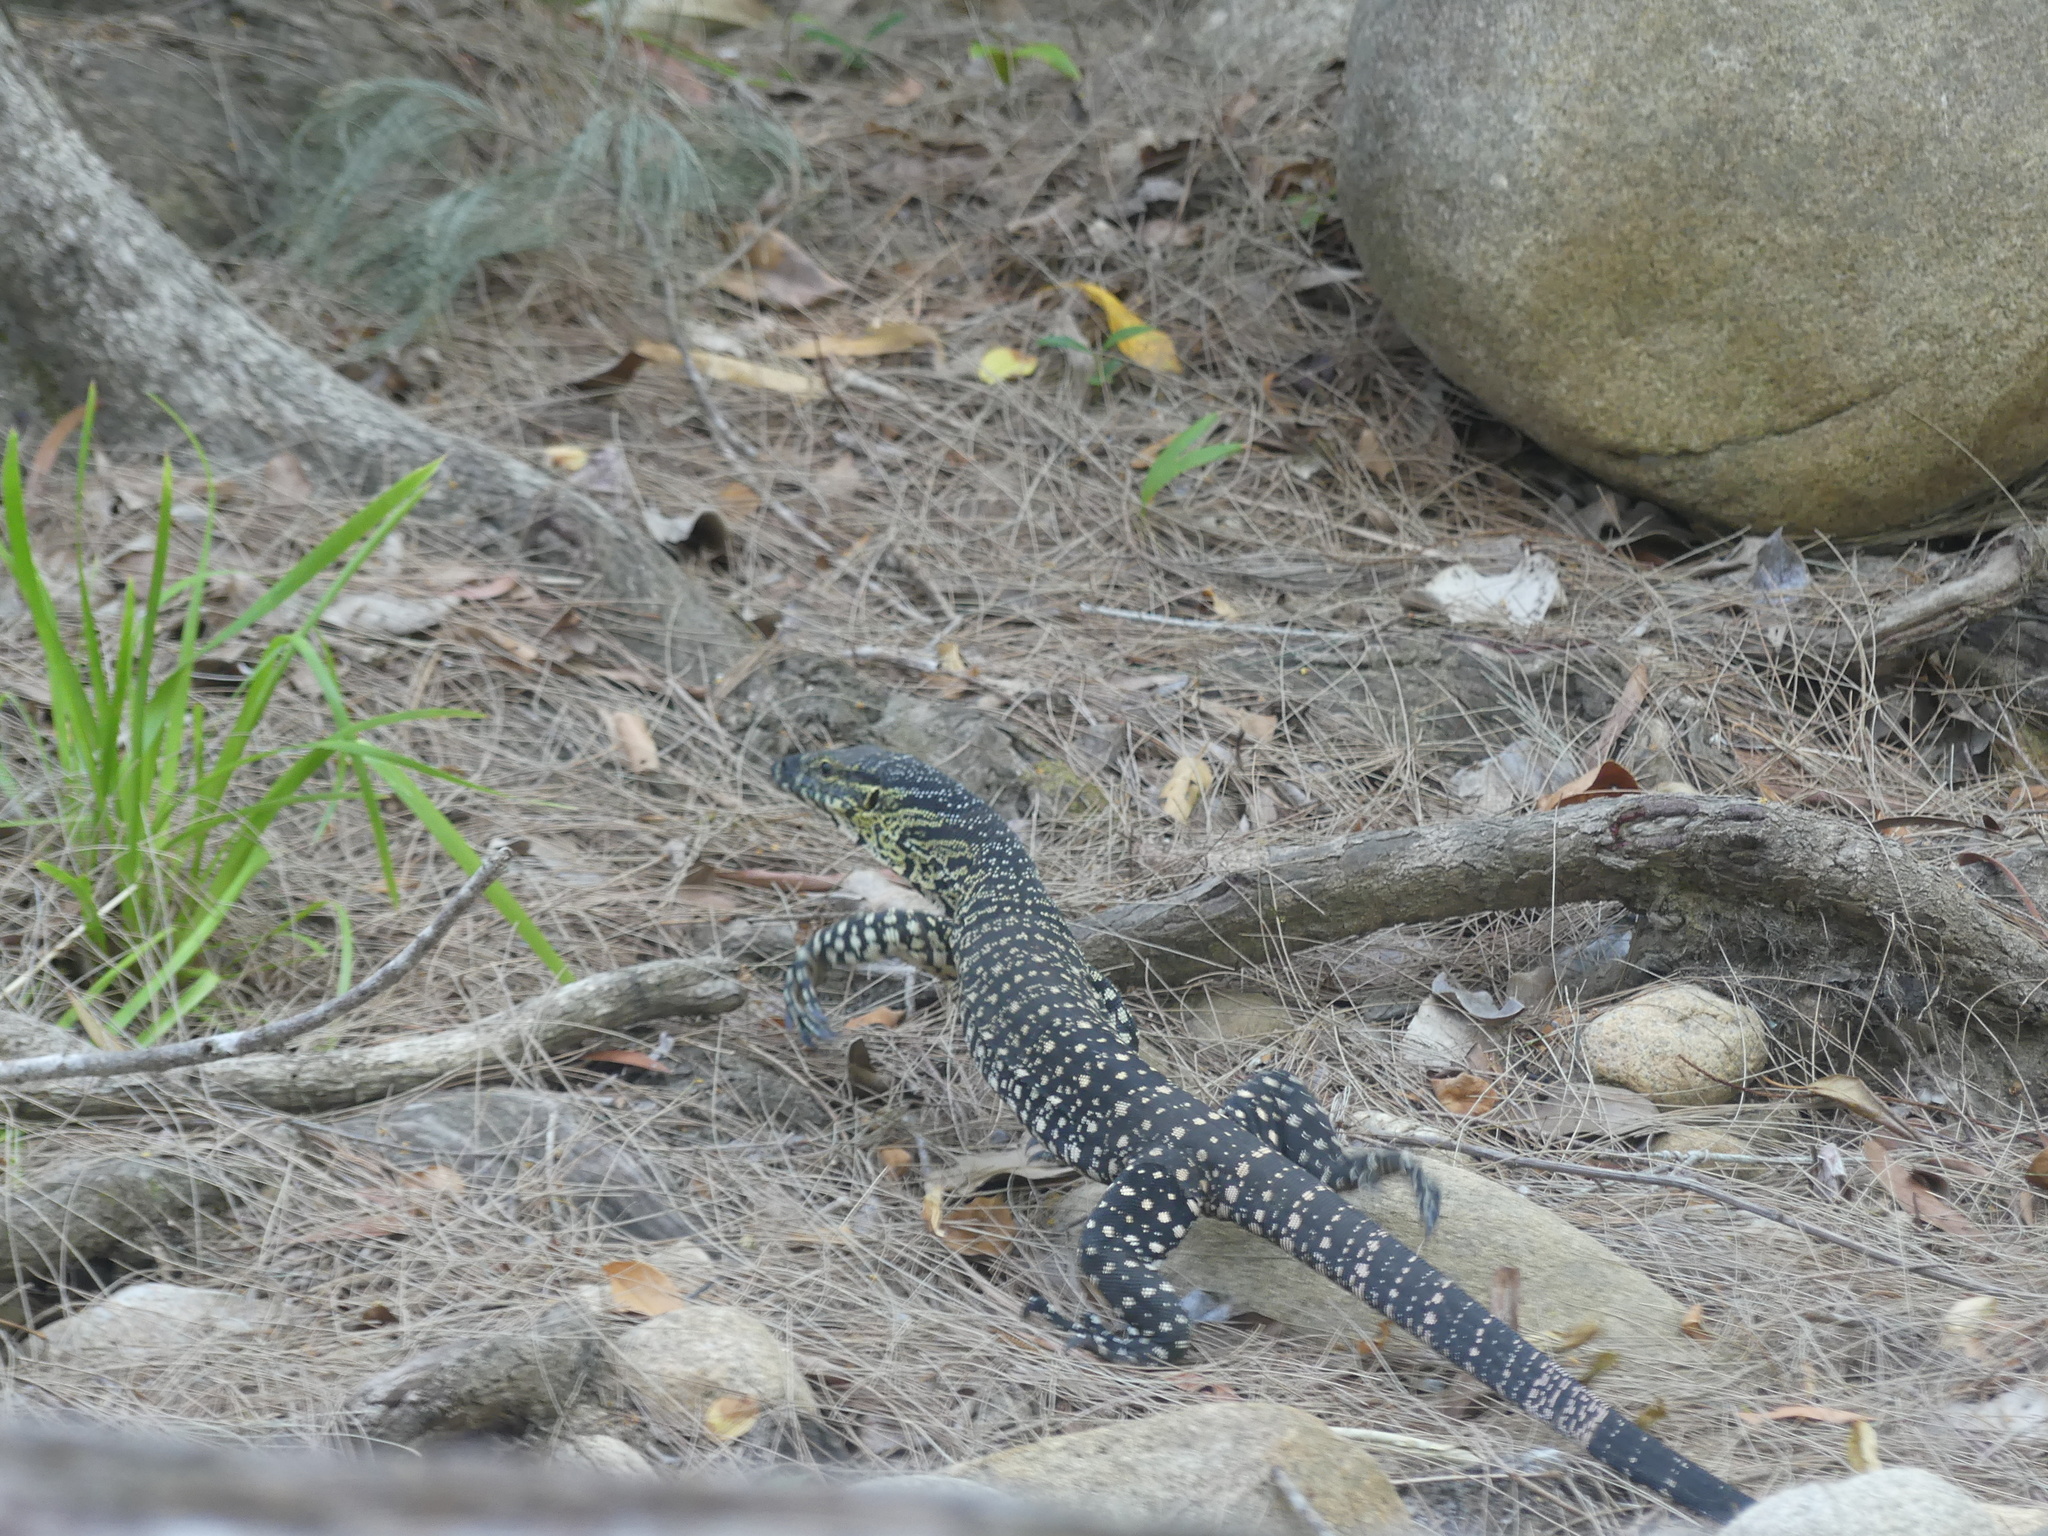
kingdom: Animalia
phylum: Chordata
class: Squamata
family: Varanidae
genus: Varanus
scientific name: Varanus varius
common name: Lace monitor
